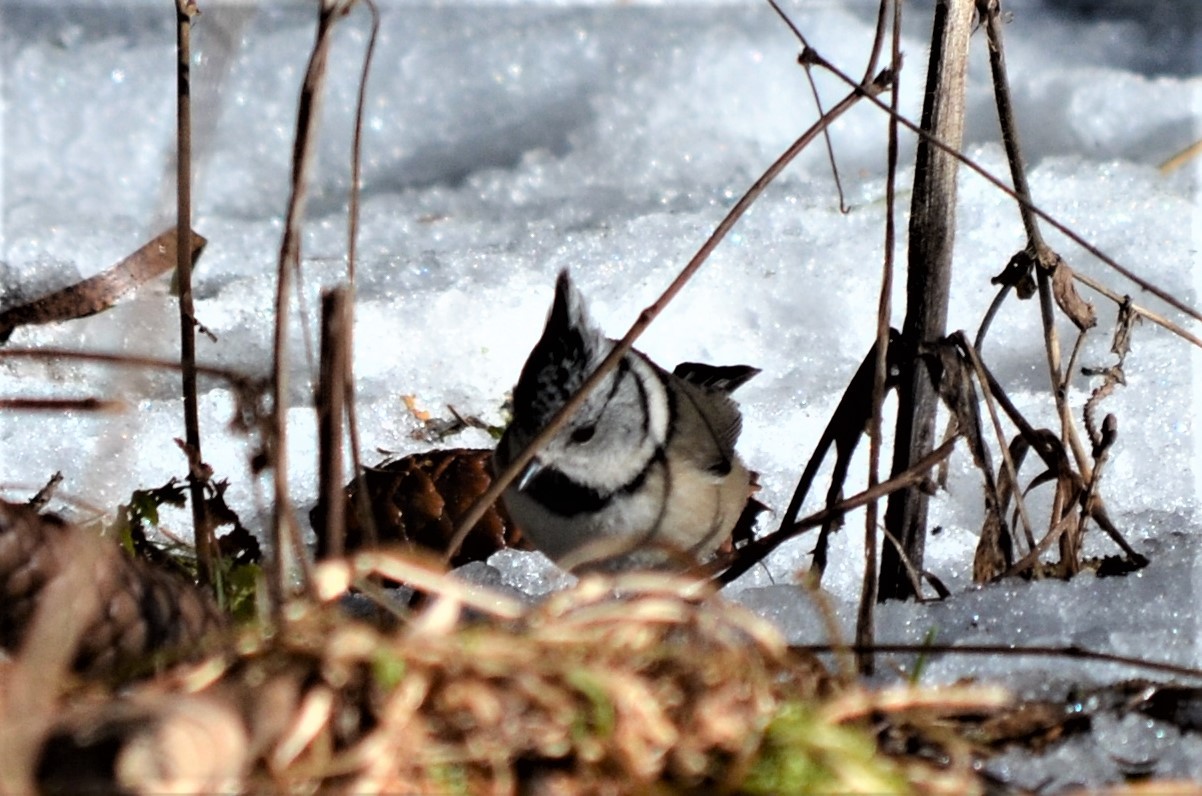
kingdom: Animalia
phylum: Chordata
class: Aves
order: Passeriformes
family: Paridae
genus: Lophophanes
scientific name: Lophophanes cristatus
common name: European crested tit
